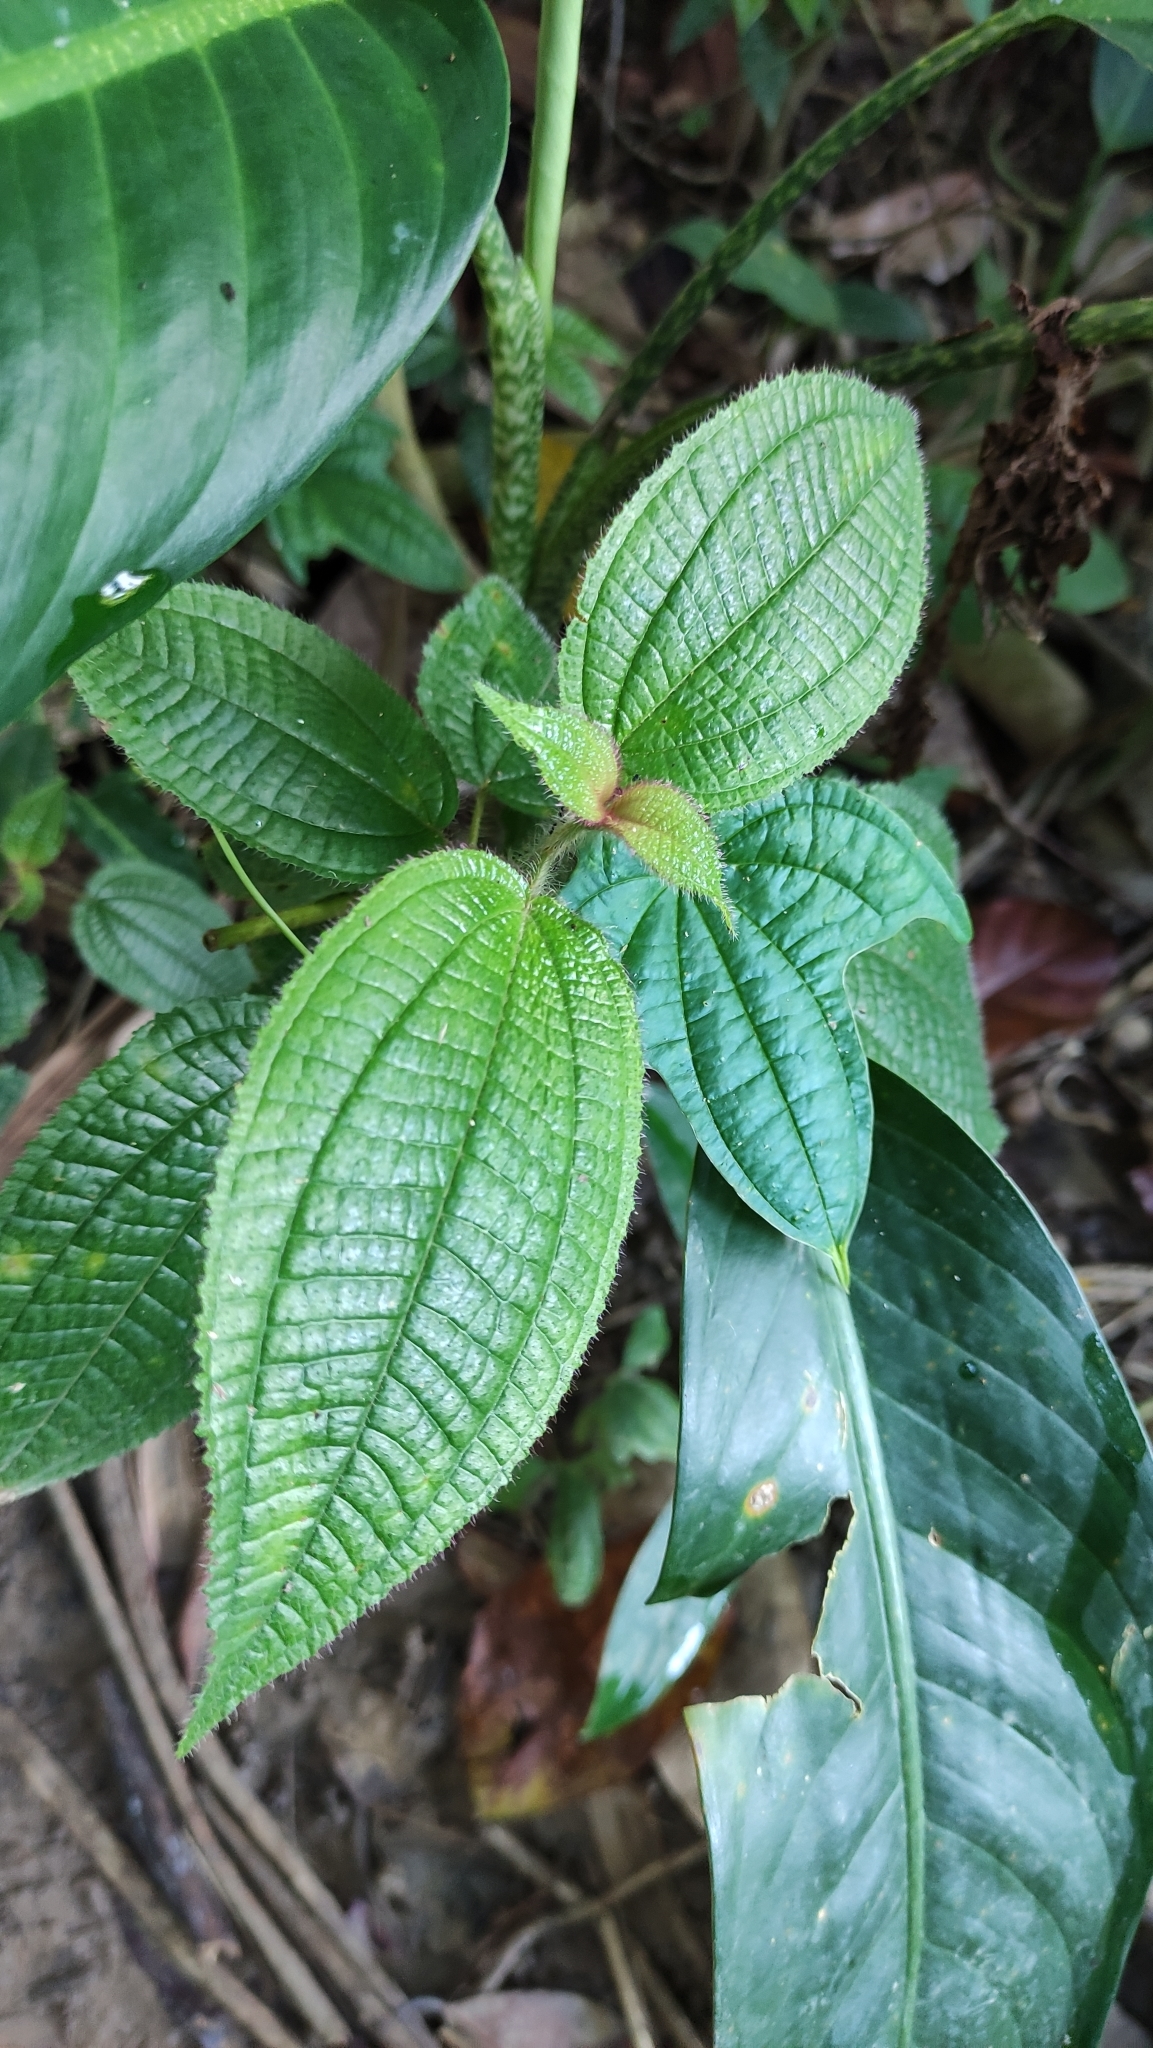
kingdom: Plantae
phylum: Tracheophyta
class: Magnoliopsida
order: Myrtales
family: Melastomataceae
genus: Miconia
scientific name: Miconia crenata
